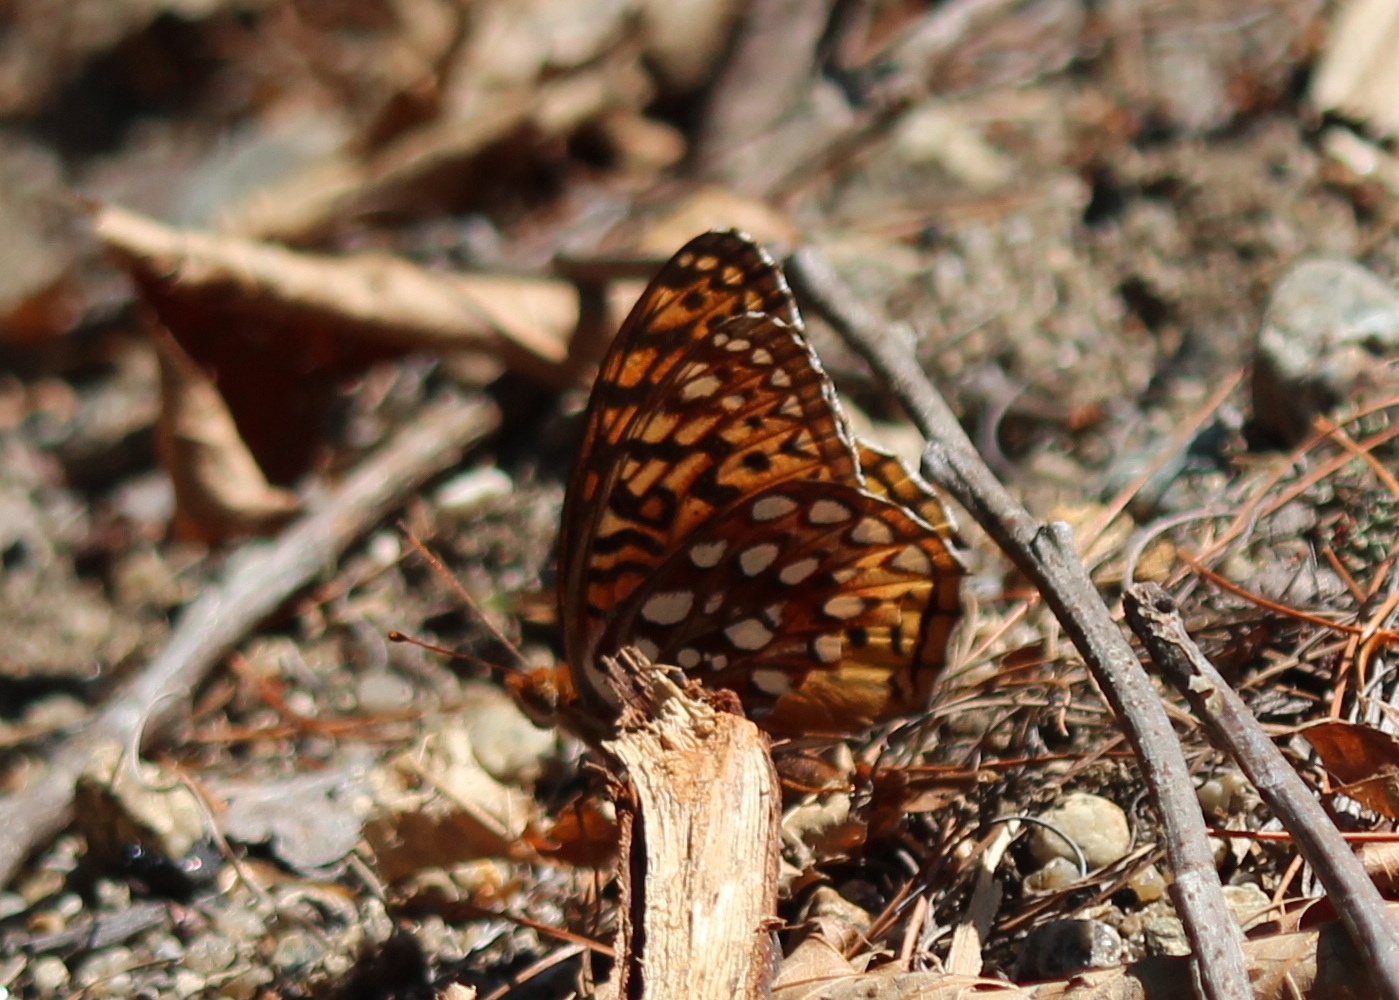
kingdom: Animalia
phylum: Arthropoda
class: Insecta
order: Lepidoptera
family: Nymphalidae
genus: Speyeria
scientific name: Speyeria cybele
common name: Great spangled fritillary
